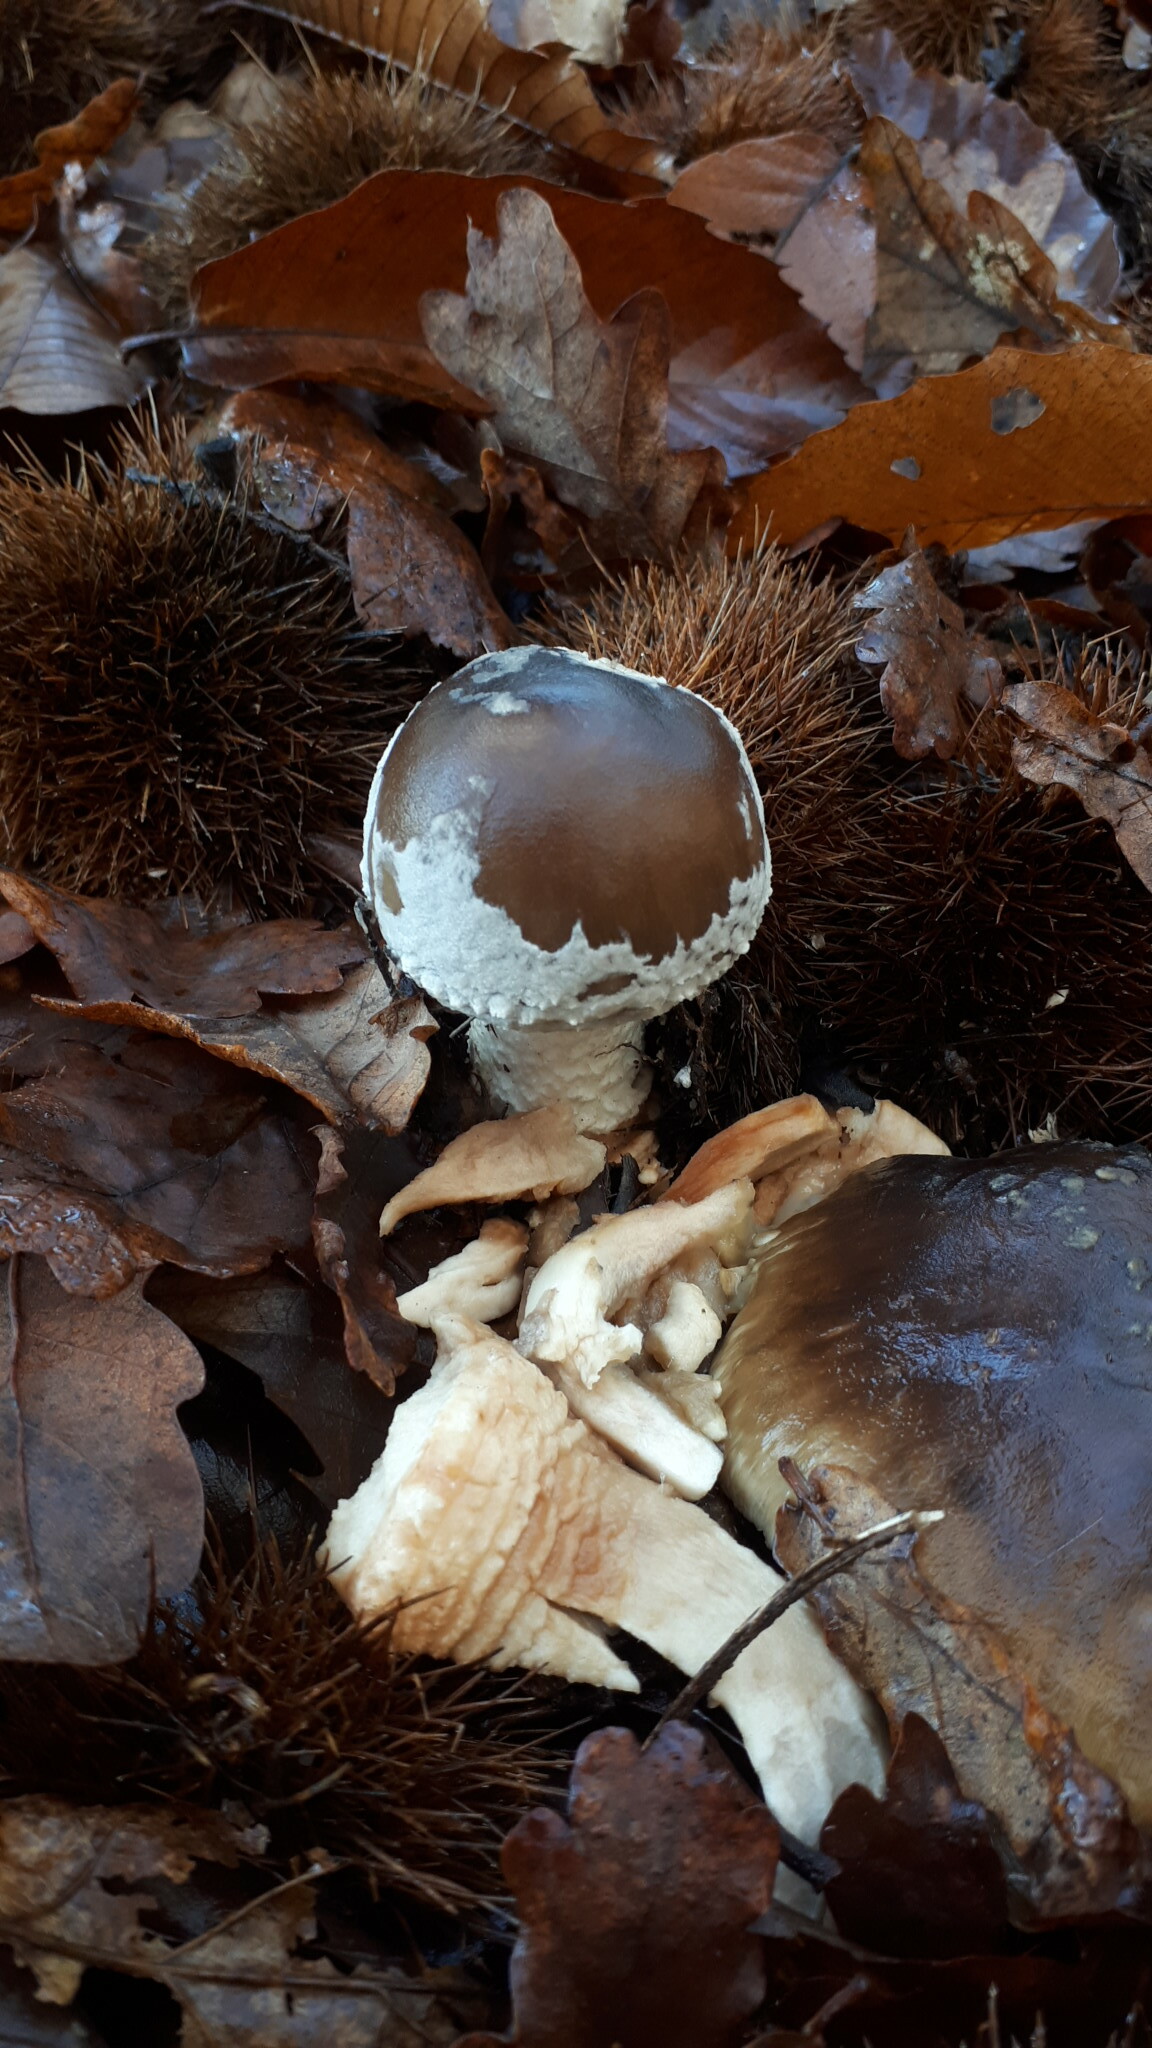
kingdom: Fungi
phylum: Basidiomycota
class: Agaricomycetes
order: Agaricales
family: Amanitaceae
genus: Amanita
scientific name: Amanita pantherina
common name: Panthercap
